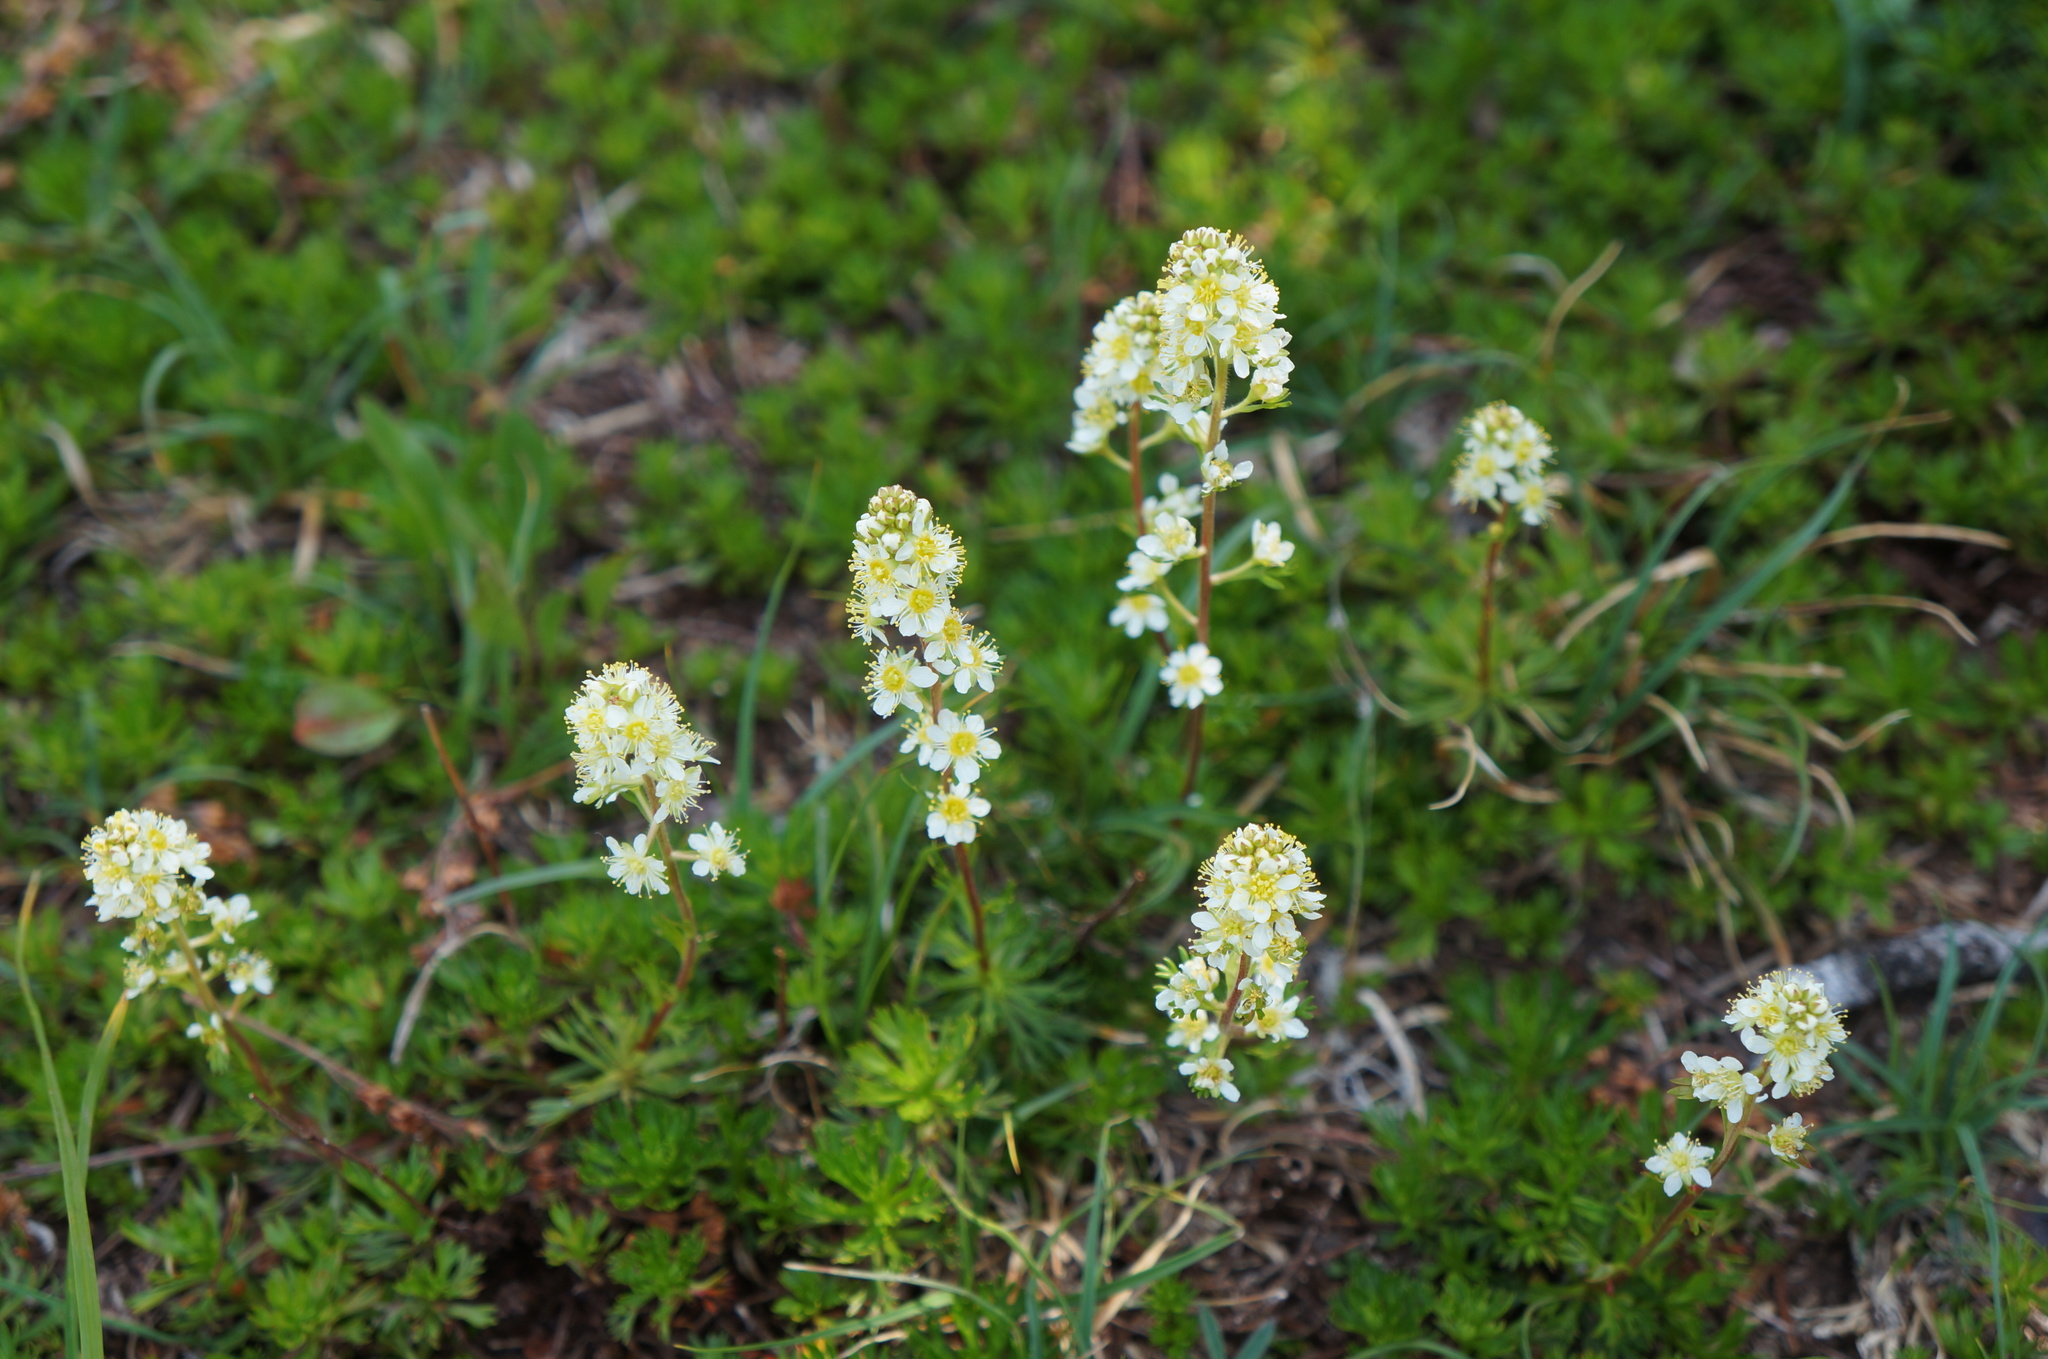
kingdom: Plantae
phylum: Tracheophyta
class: Magnoliopsida
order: Rosales
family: Rosaceae
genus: Luetkea
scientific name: Luetkea pectinata
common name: Partridgefoot
